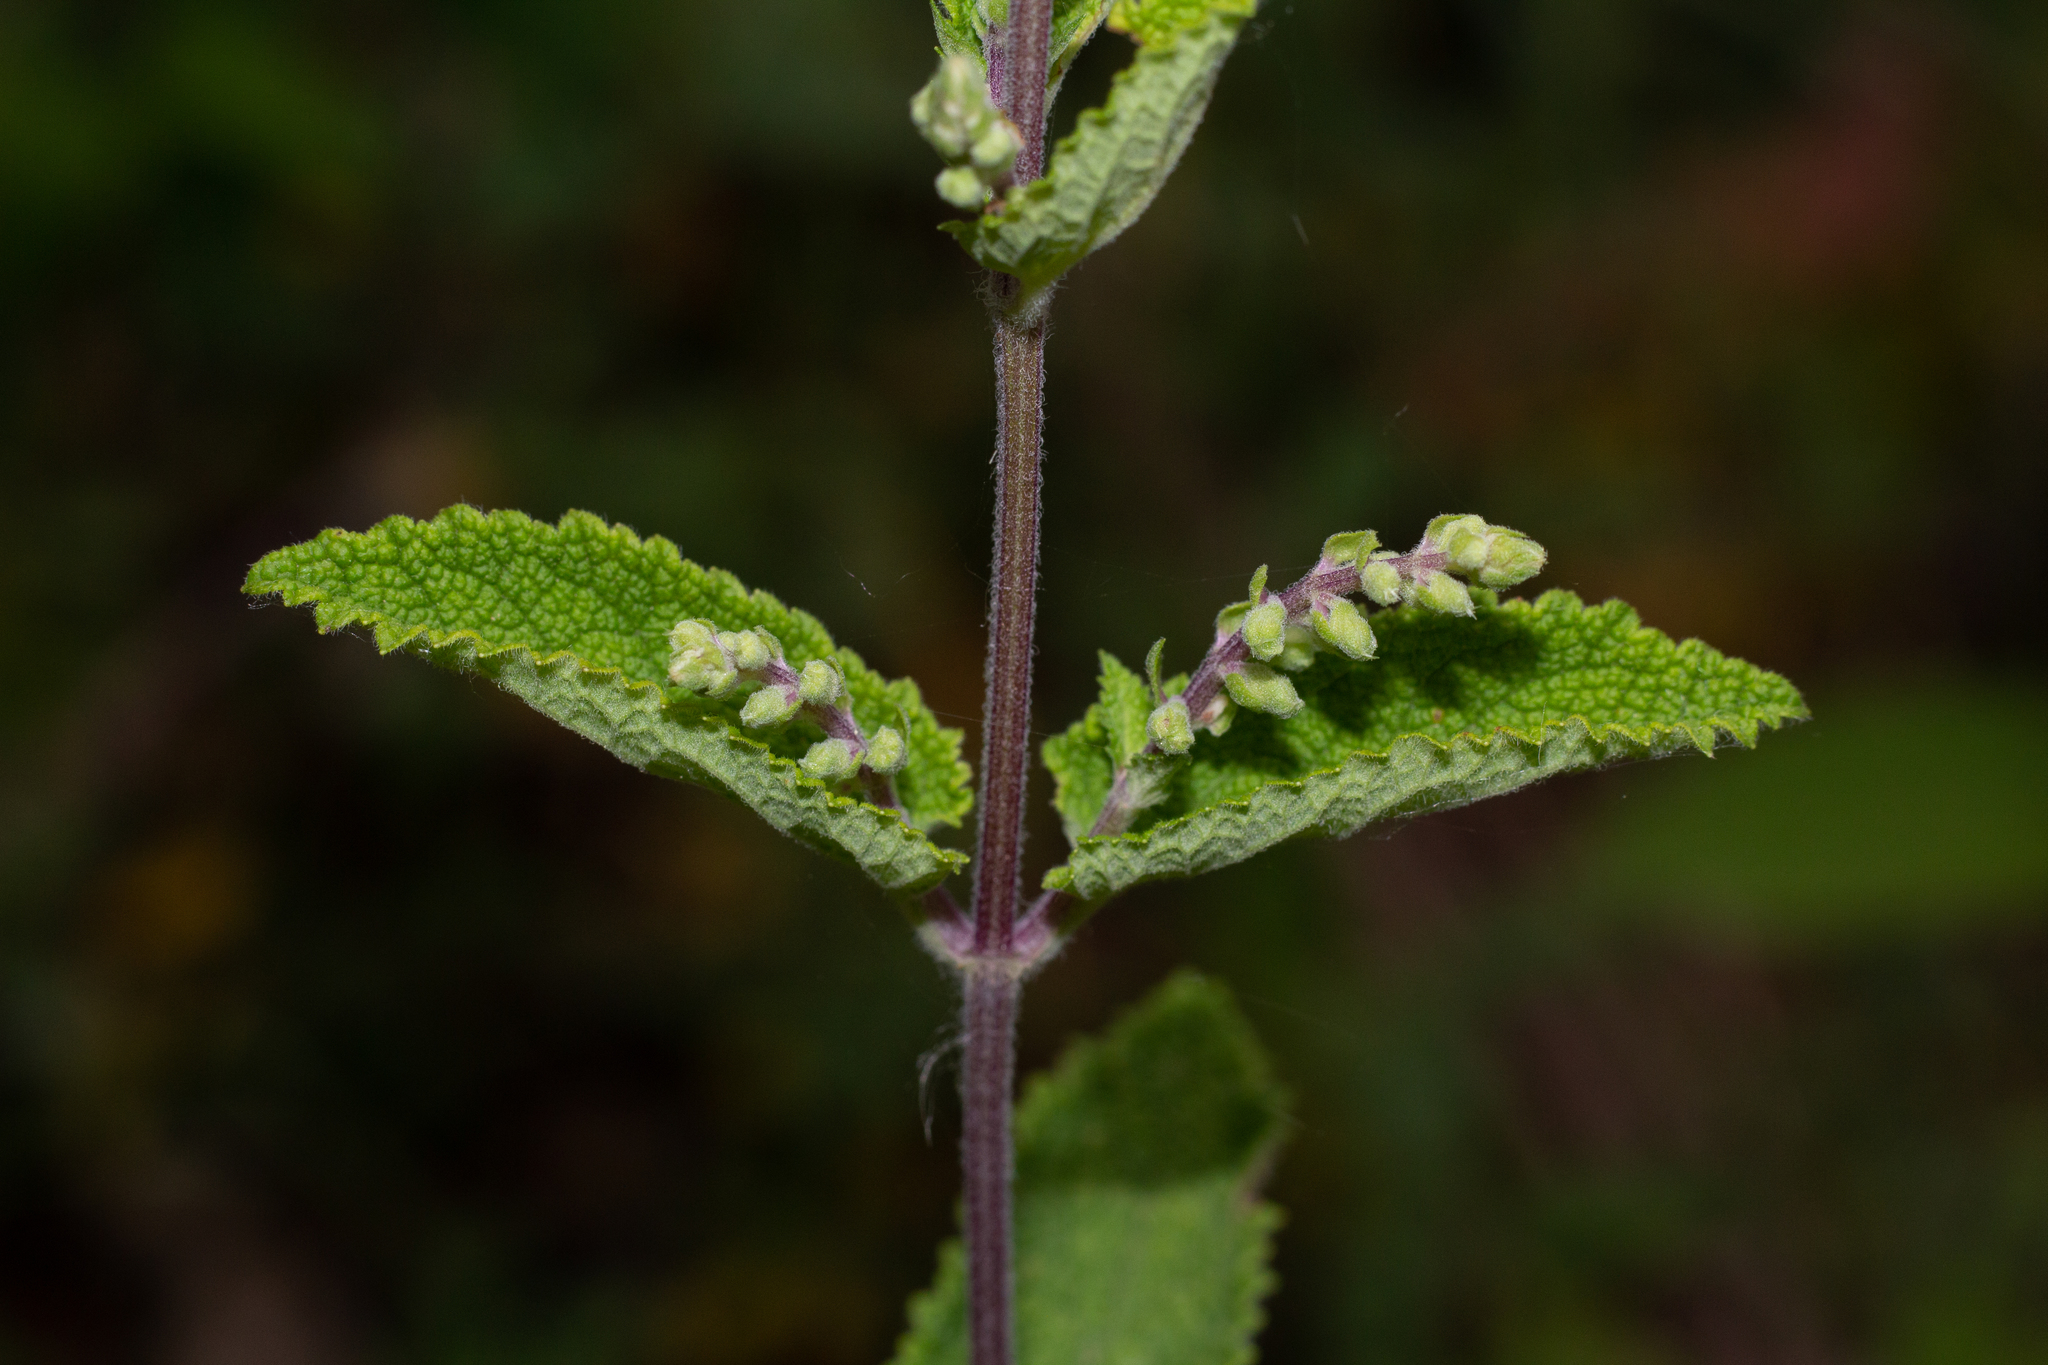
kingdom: Plantae
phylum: Tracheophyta
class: Magnoliopsida
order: Lamiales
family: Lamiaceae
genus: Teucrium
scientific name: Teucrium scorodonia
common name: Woodland germander
